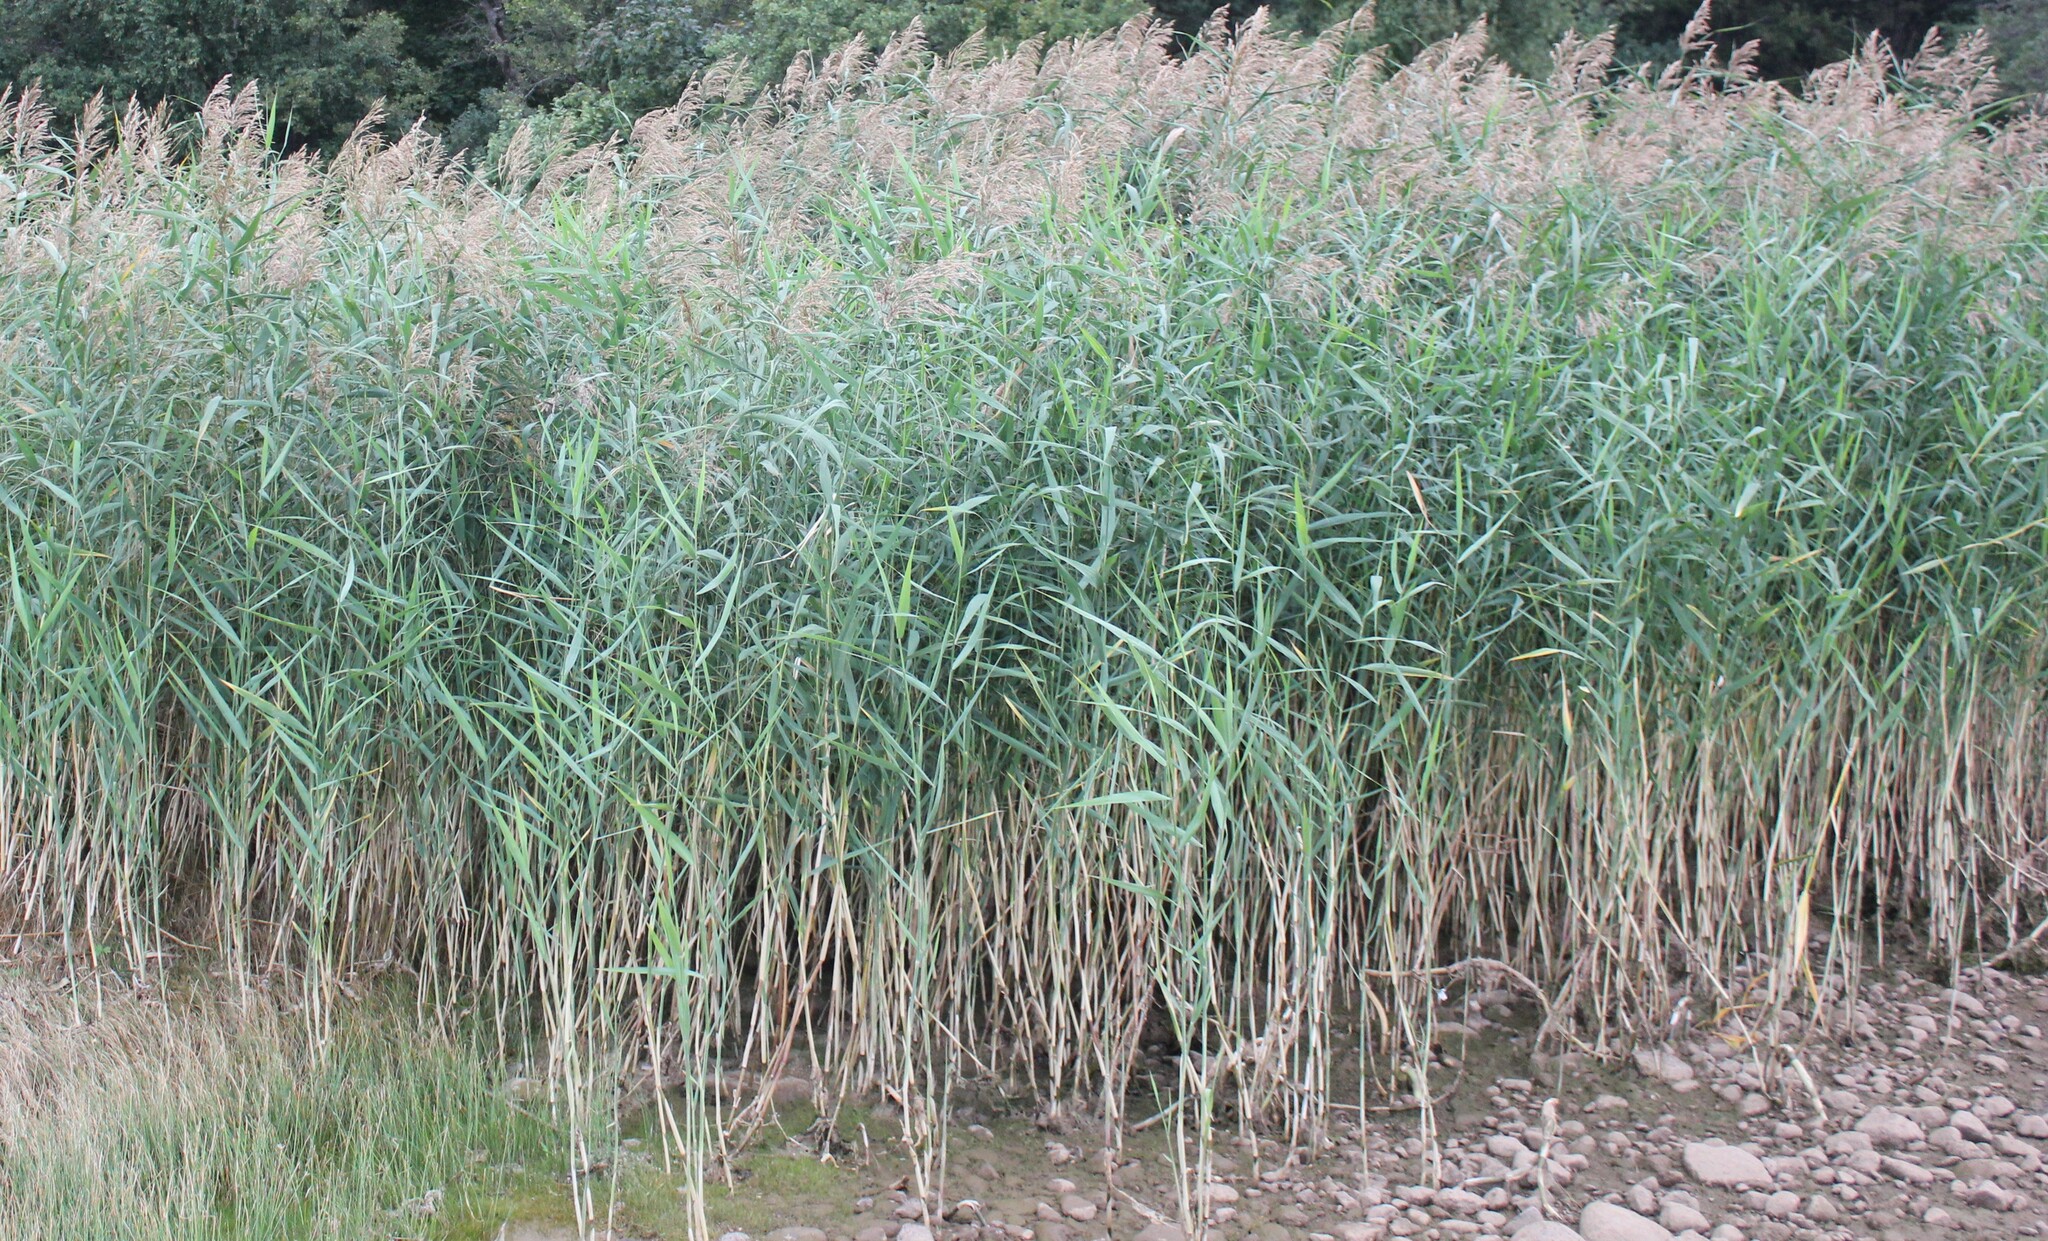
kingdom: Plantae
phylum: Tracheophyta
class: Liliopsida
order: Poales
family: Poaceae
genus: Phragmites
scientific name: Phragmites australis
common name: Common reed
